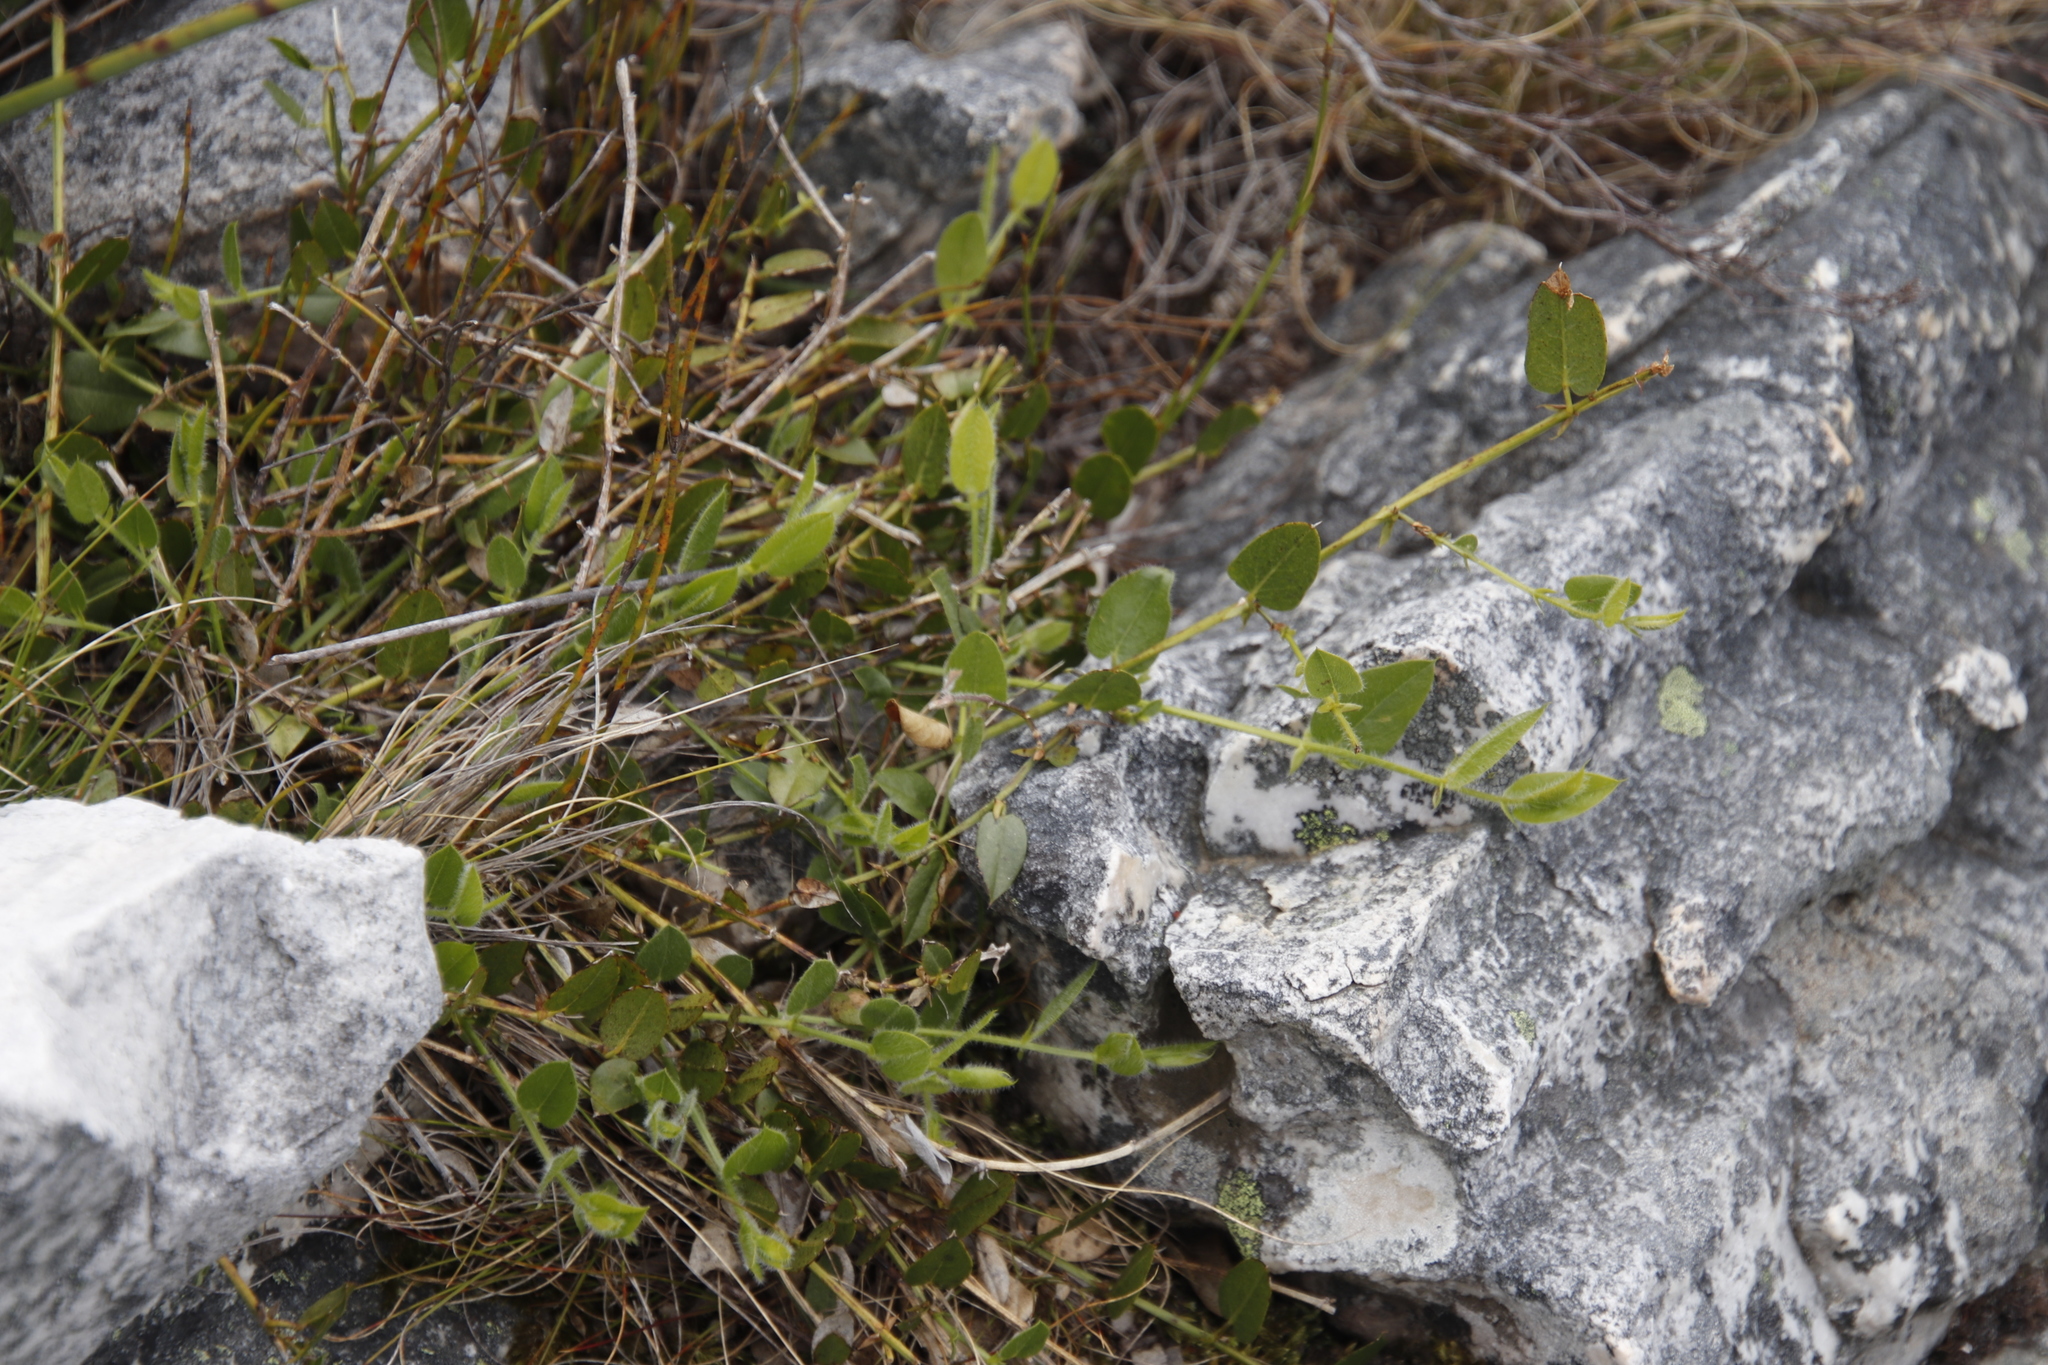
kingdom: Plantae
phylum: Tracheophyta
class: Magnoliopsida
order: Fabales
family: Fabaceae
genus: Psoralea
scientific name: Psoralea asarina
